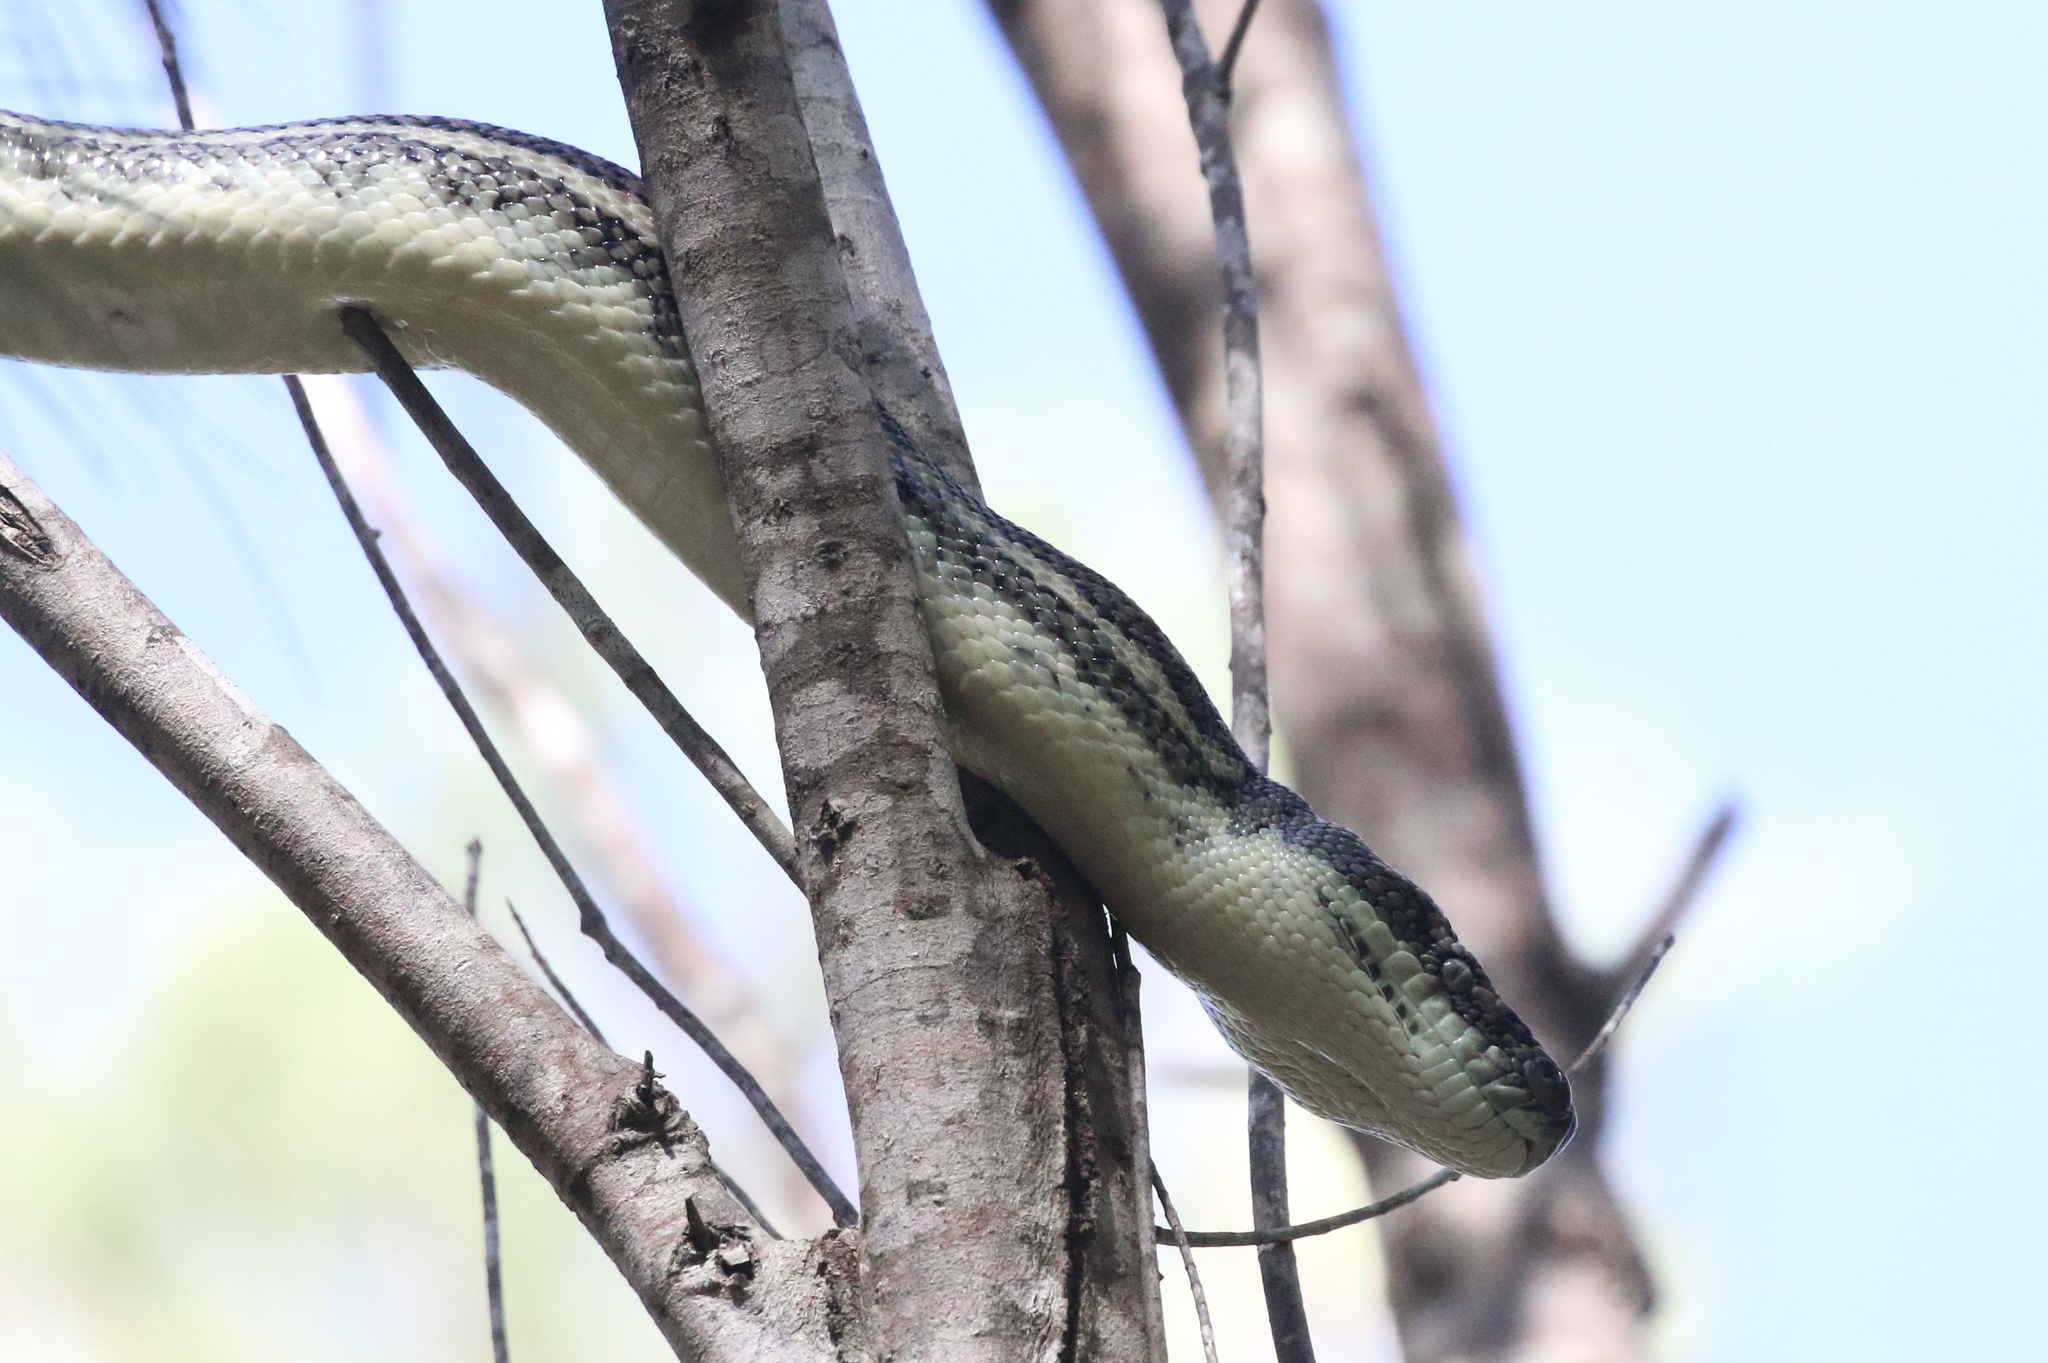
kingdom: Animalia
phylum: Chordata
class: Squamata
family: Pythonidae
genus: Morelia
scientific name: Morelia spilota
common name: Carpet python
